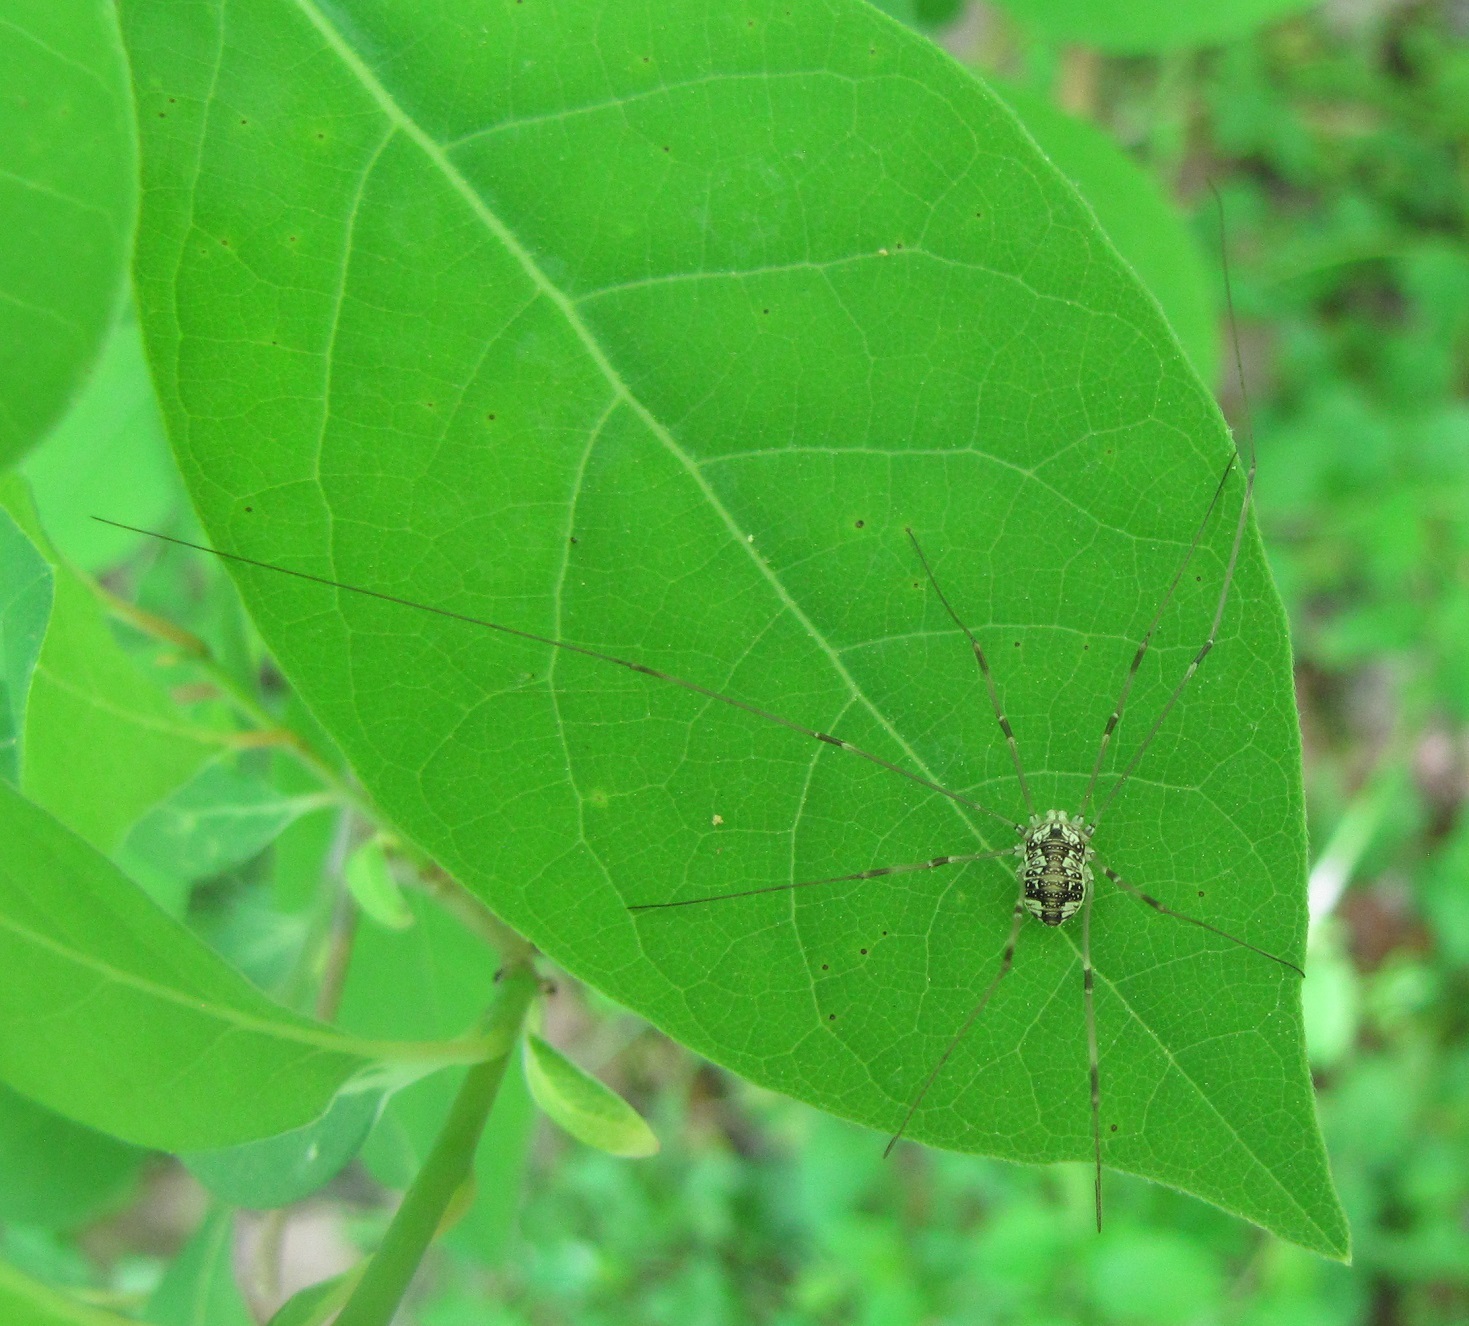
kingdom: Animalia
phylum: Arthropoda
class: Arachnida
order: Opiliones
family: Sclerosomatidae
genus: Leiobunum
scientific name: Leiobunum vittatum
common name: Eastern harvestman
